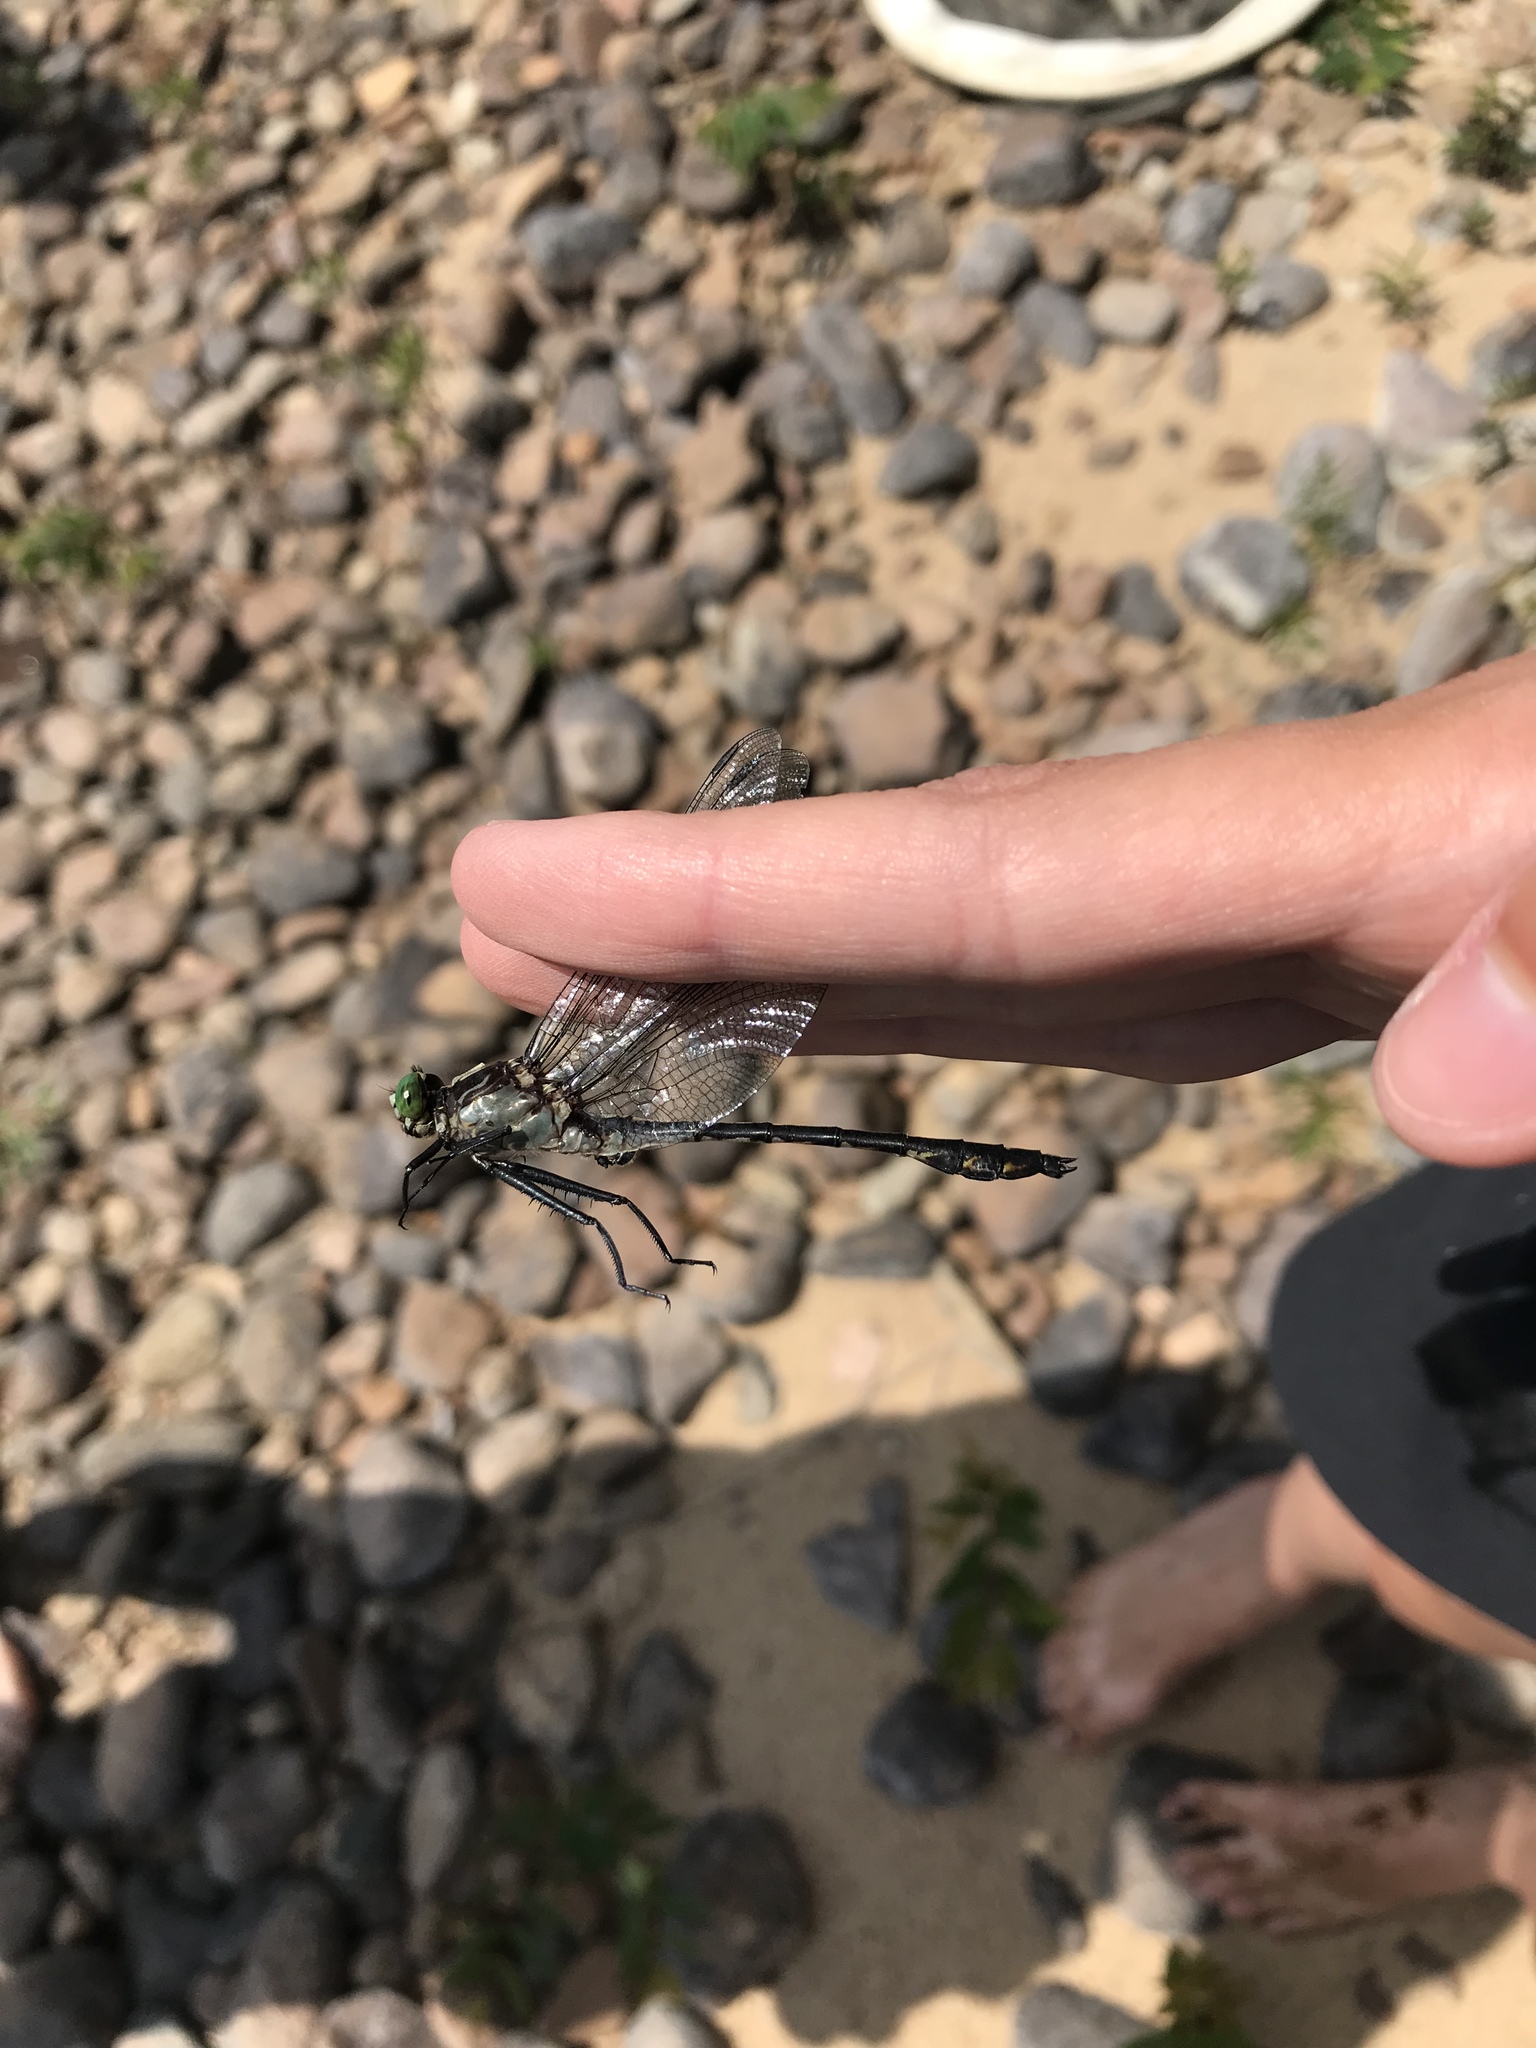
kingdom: Animalia
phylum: Arthropoda
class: Insecta
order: Odonata
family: Gomphidae
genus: Dromogomphus
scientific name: Dromogomphus spinosus
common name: Black-shouldered spinyleg
